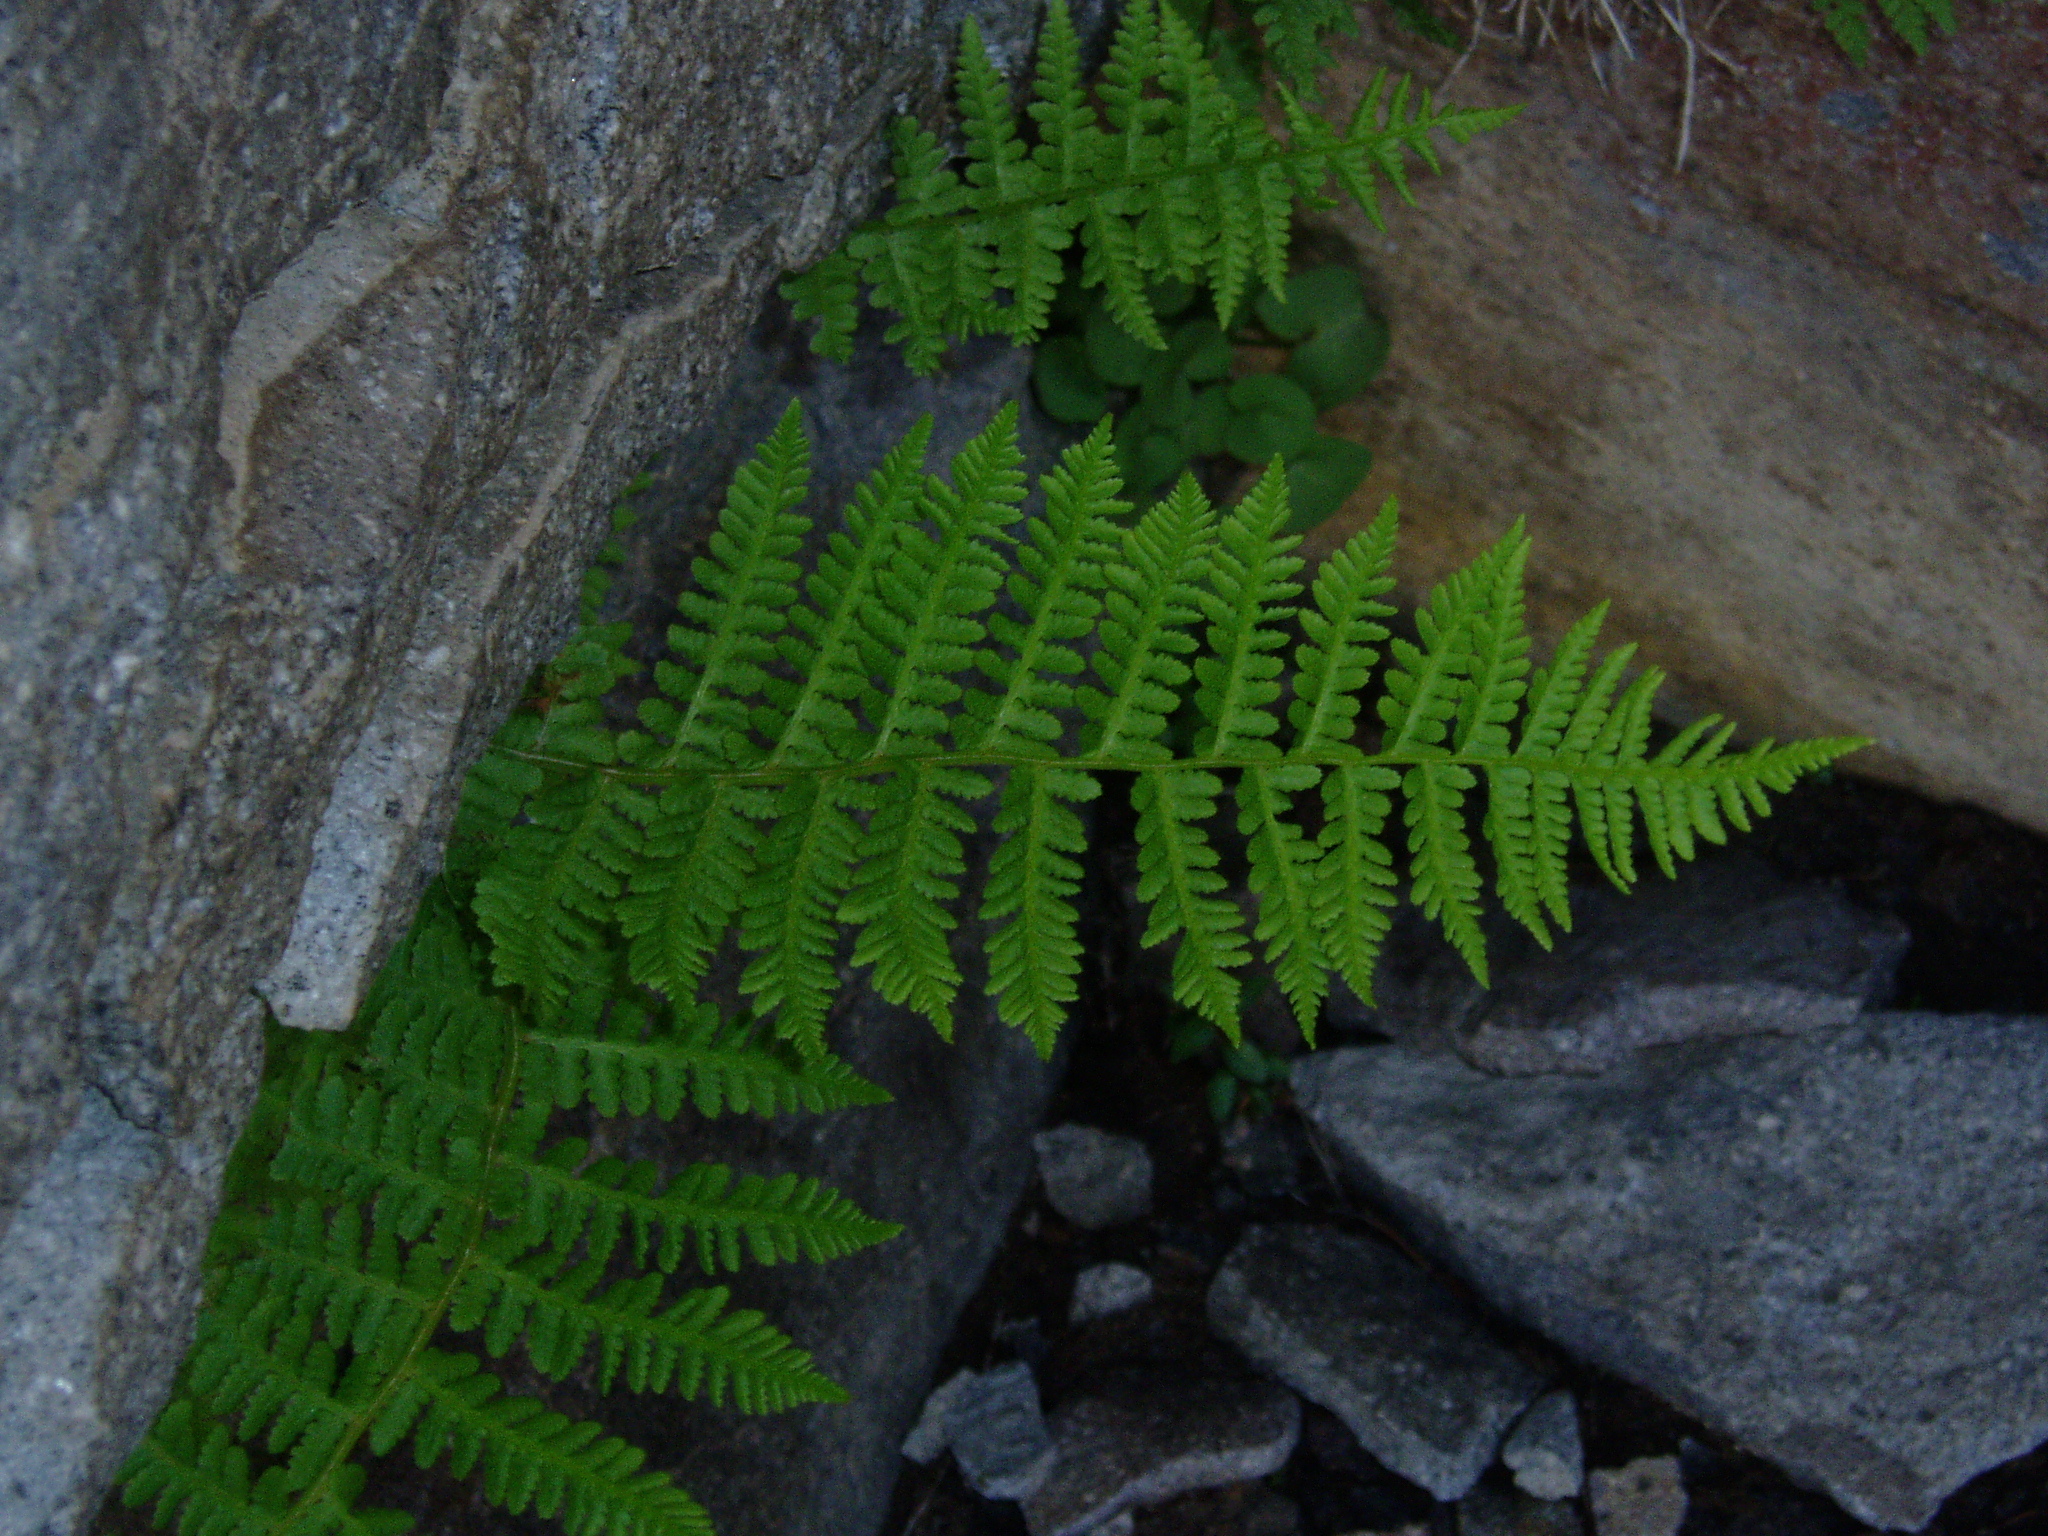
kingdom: Plantae
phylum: Tracheophyta
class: Polypodiopsida
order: Polypodiales
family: Athyriaceae
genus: Athyrium
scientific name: Athyrium americanum
